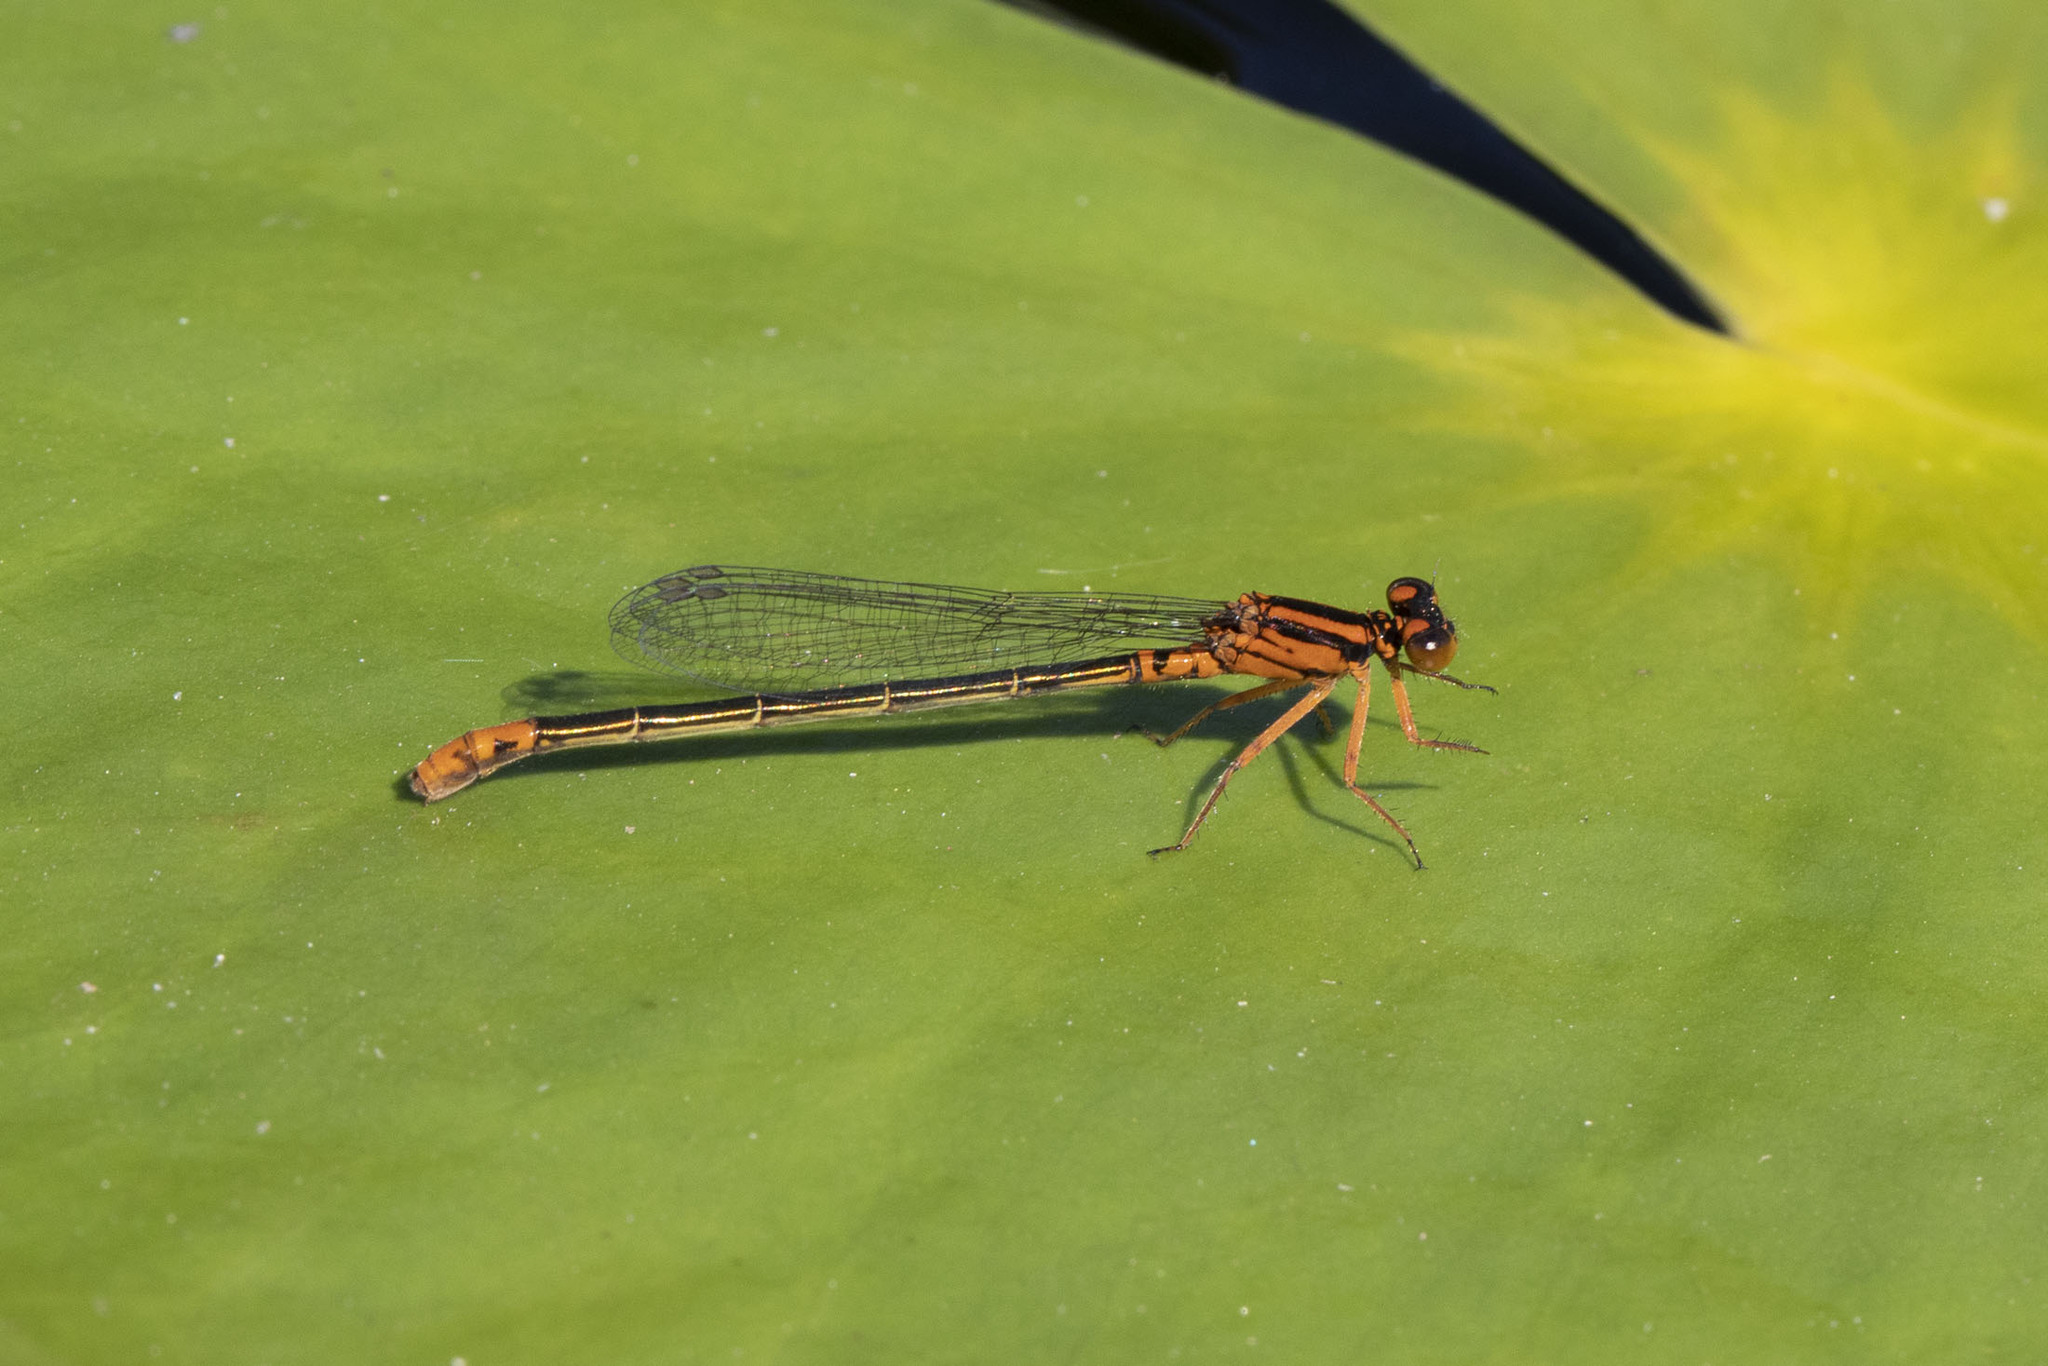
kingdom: Animalia
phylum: Arthropoda
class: Insecta
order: Odonata
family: Coenagrionidae
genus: Ischnura
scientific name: Ischnura kellicotti
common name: Lilypad forktail
